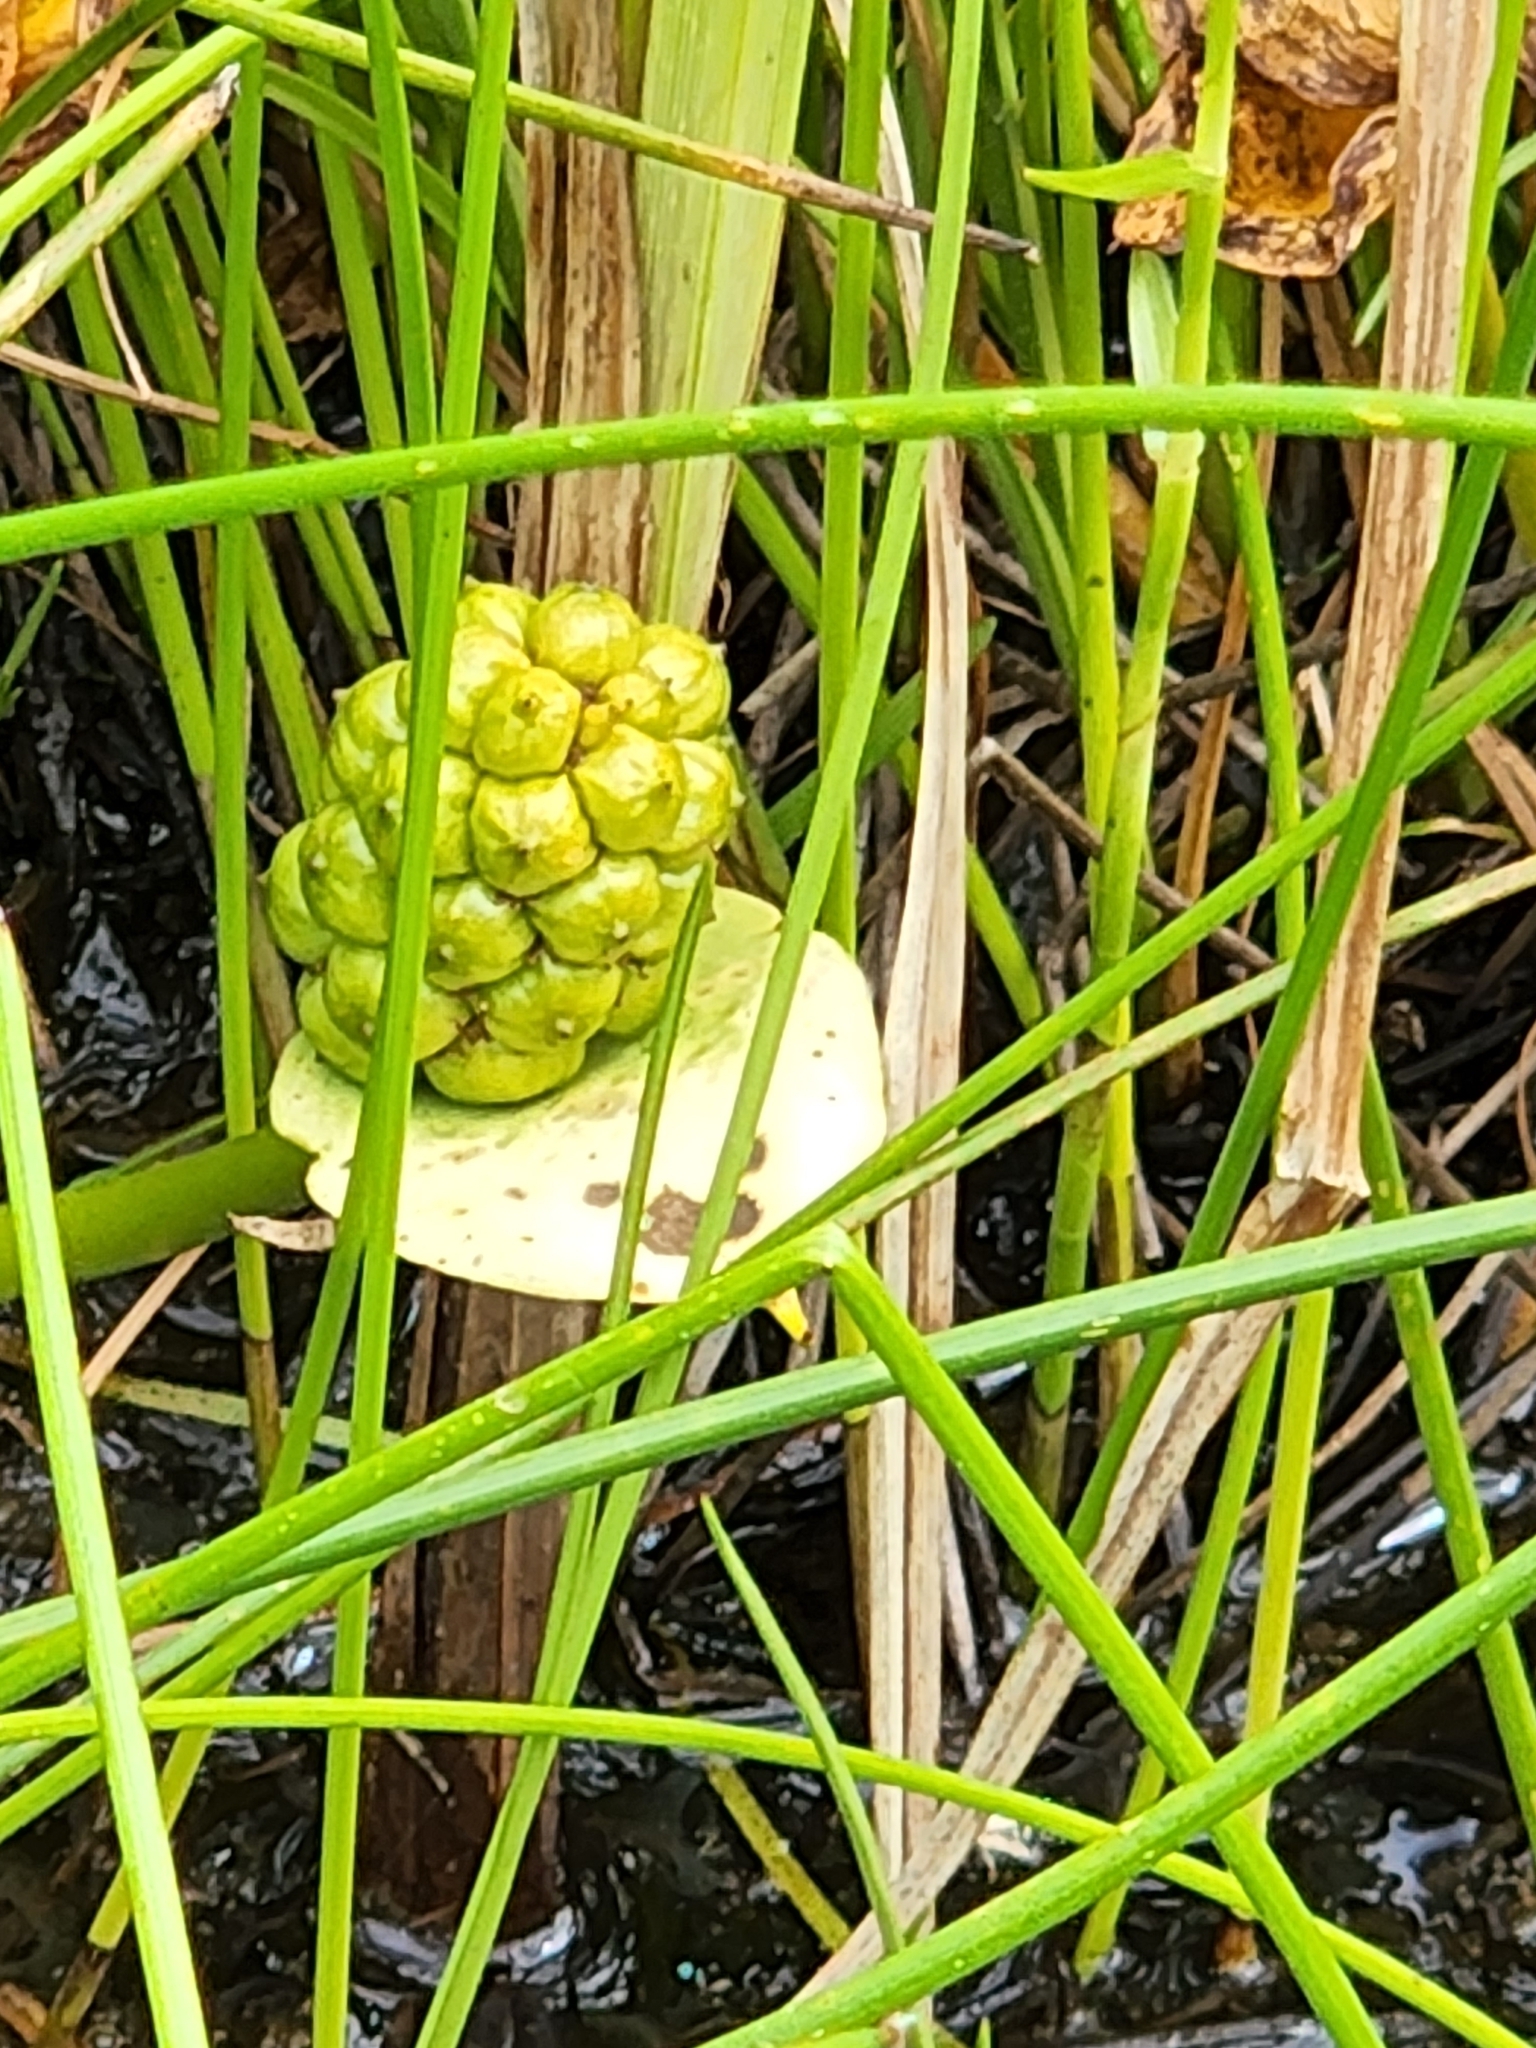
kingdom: Plantae
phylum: Tracheophyta
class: Liliopsida
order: Alismatales
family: Araceae
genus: Calla
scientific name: Calla palustris
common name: Bog arum
